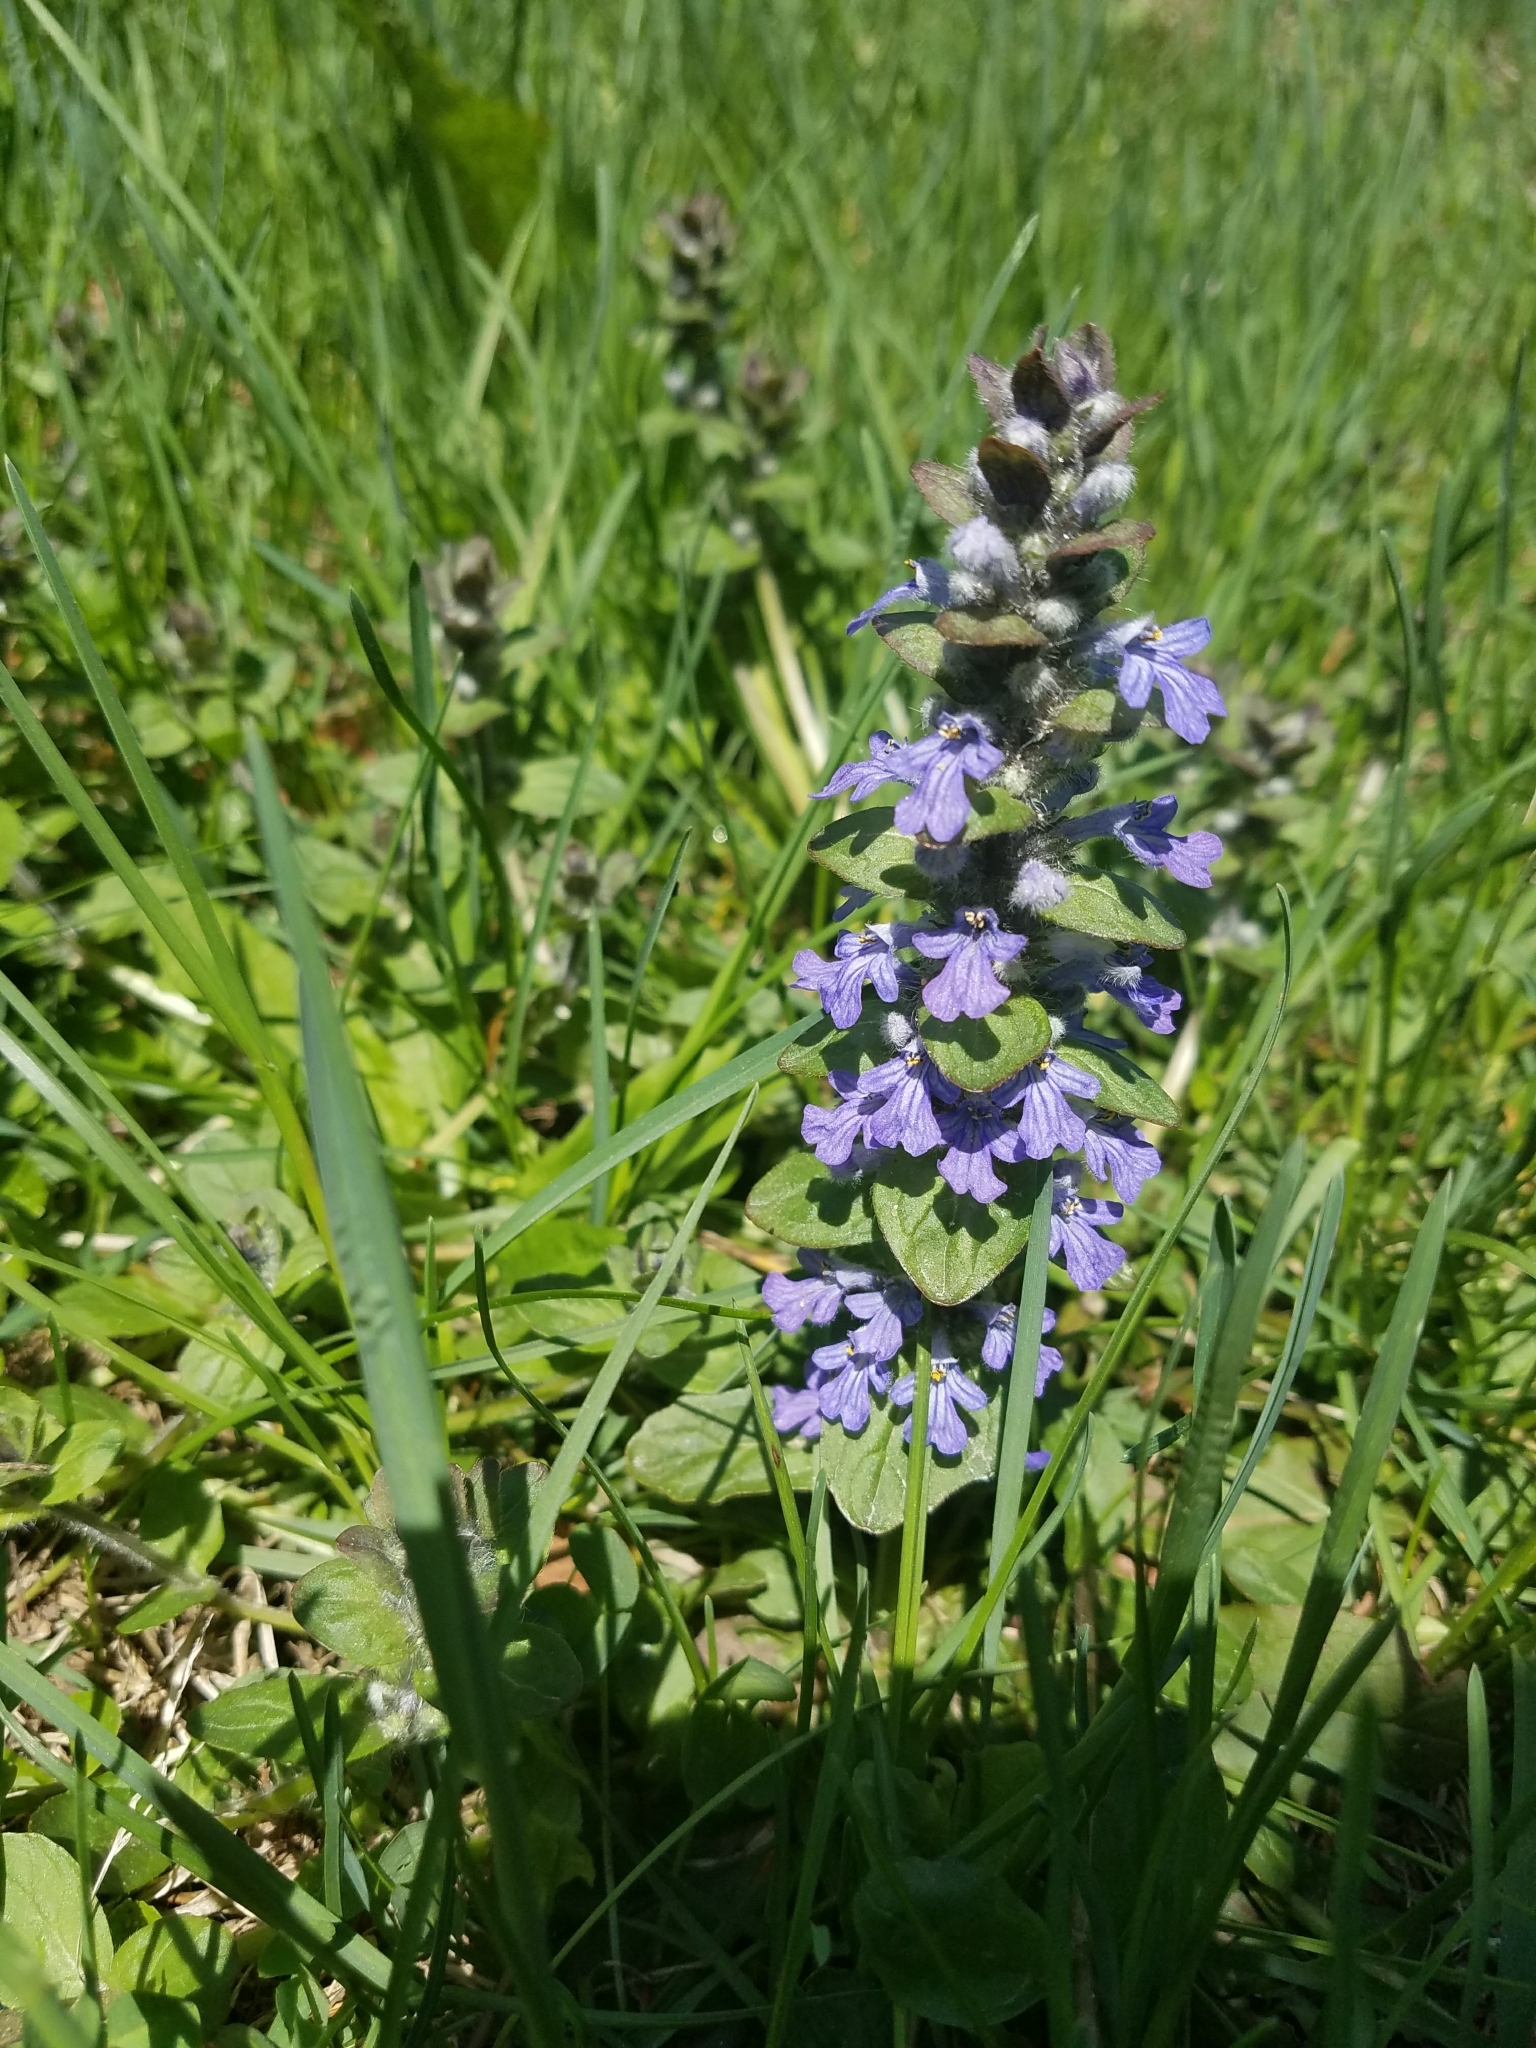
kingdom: Plantae
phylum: Tracheophyta
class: Magnoliopsida
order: Lamiales
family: Lamiaceae
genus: Ajuga
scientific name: Ajuga reptans
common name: Bugle
